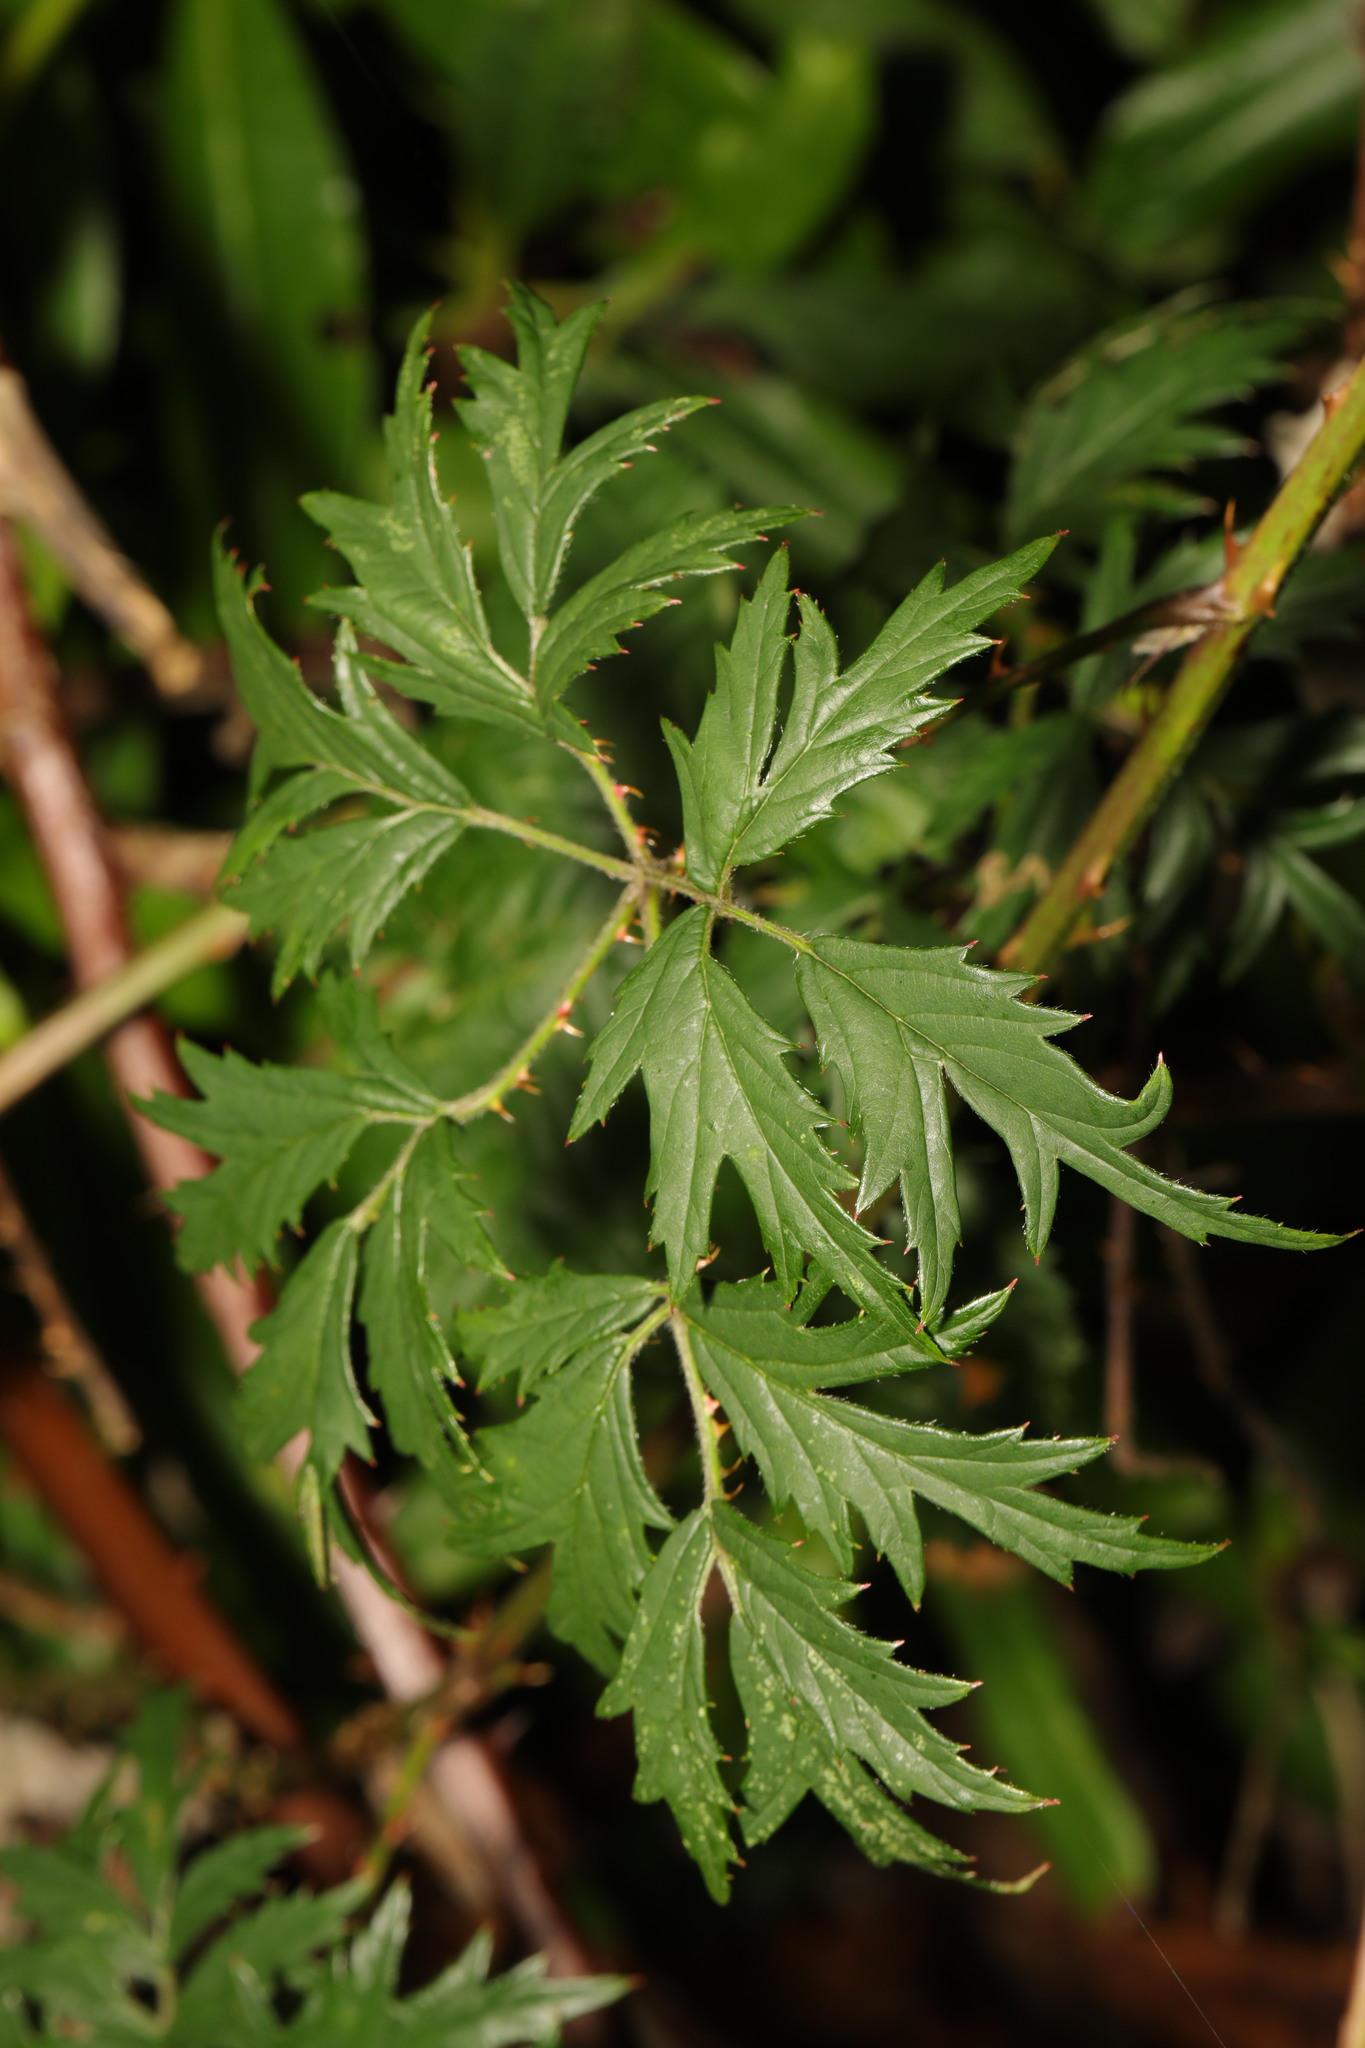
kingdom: Plantae
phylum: Tracheophyta
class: Magnoliopsida
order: Rosales
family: Rosaceae
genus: Rubus
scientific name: Rubus laciniatus
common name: Evergreen blackberry
